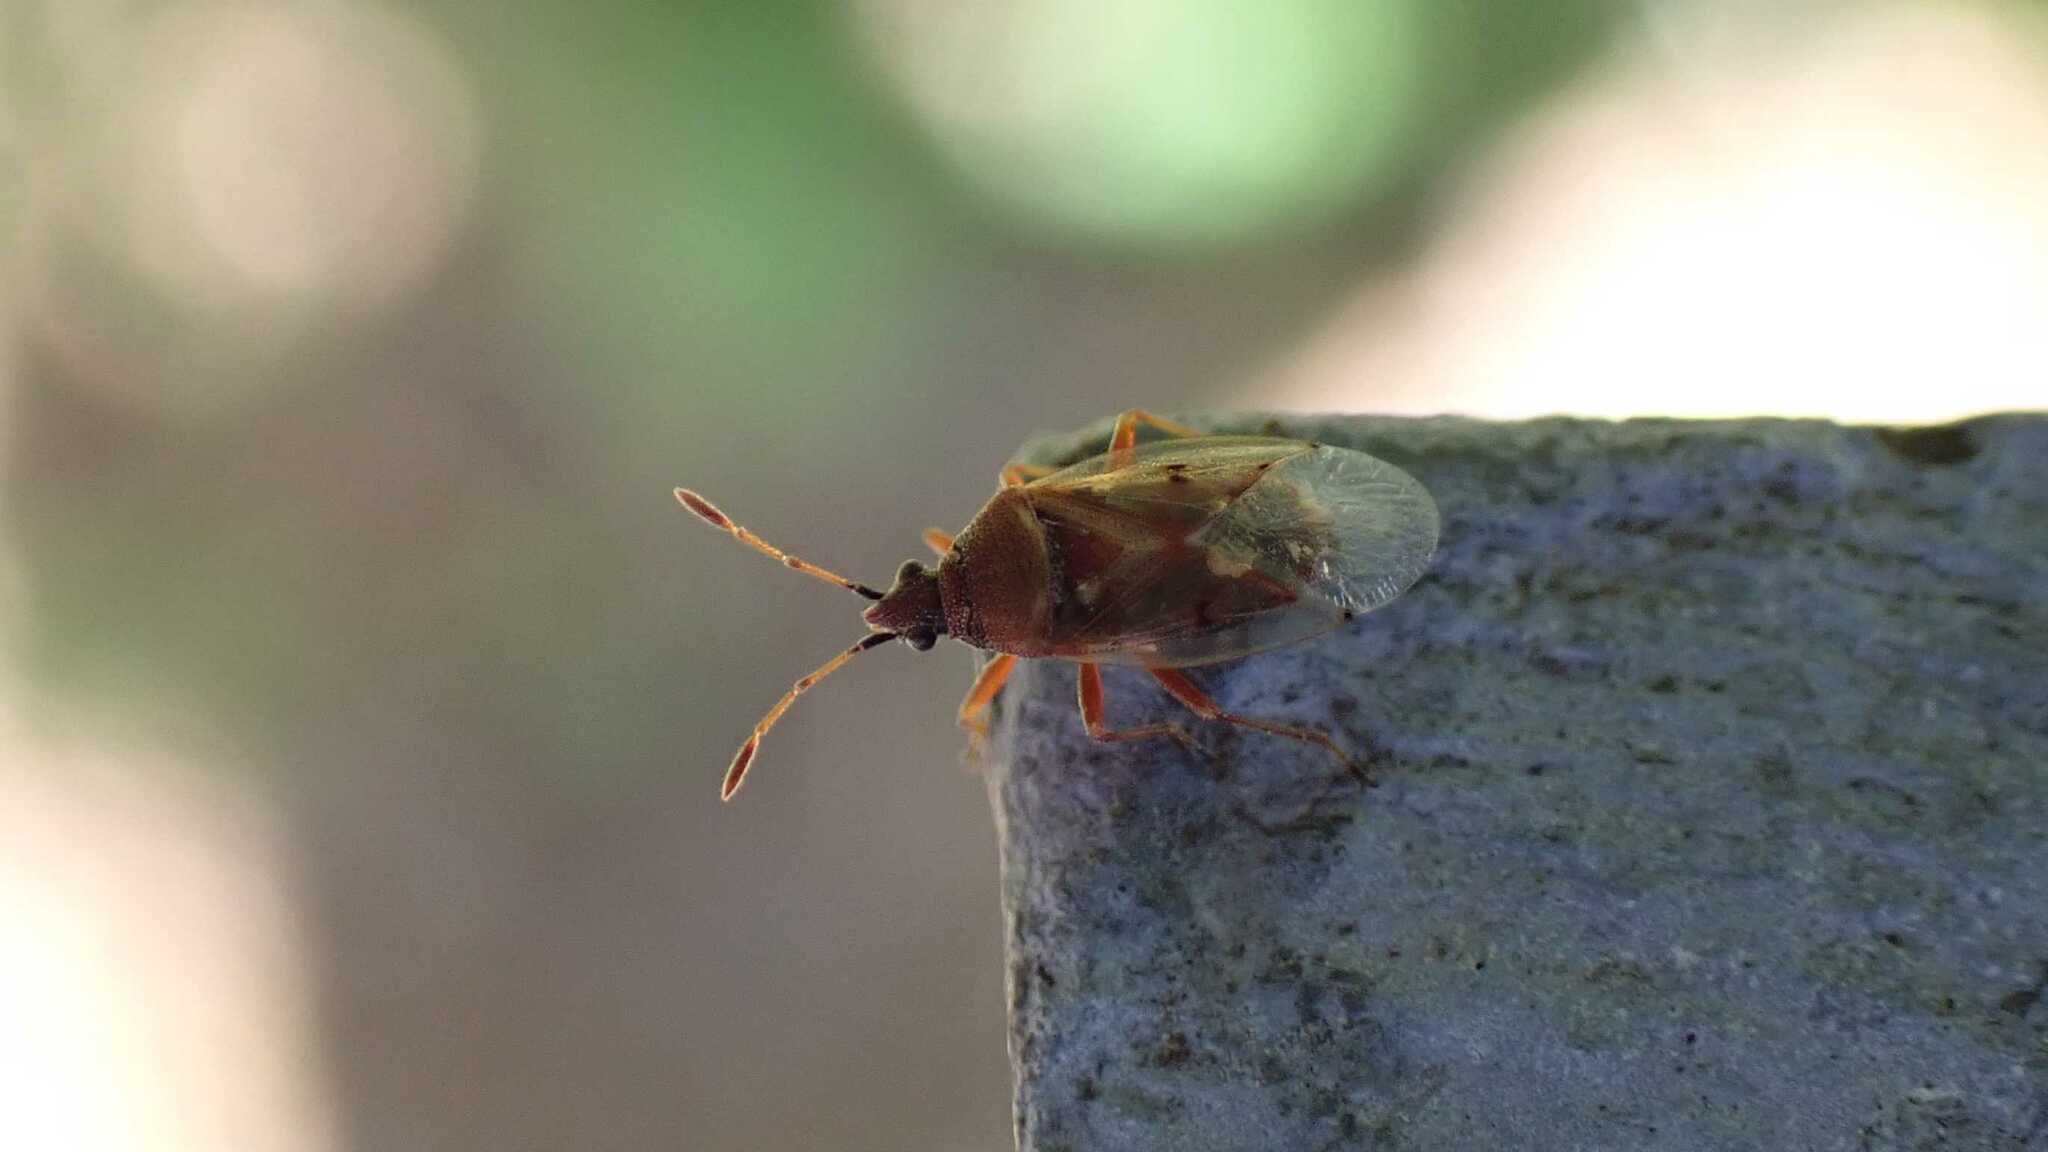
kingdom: Animalia
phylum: Arthropoda
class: Insecta
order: Hemiptera
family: Lygaeidae
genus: Kleidocerys
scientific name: Kleidocerys resedae
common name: Birch catkin bug
